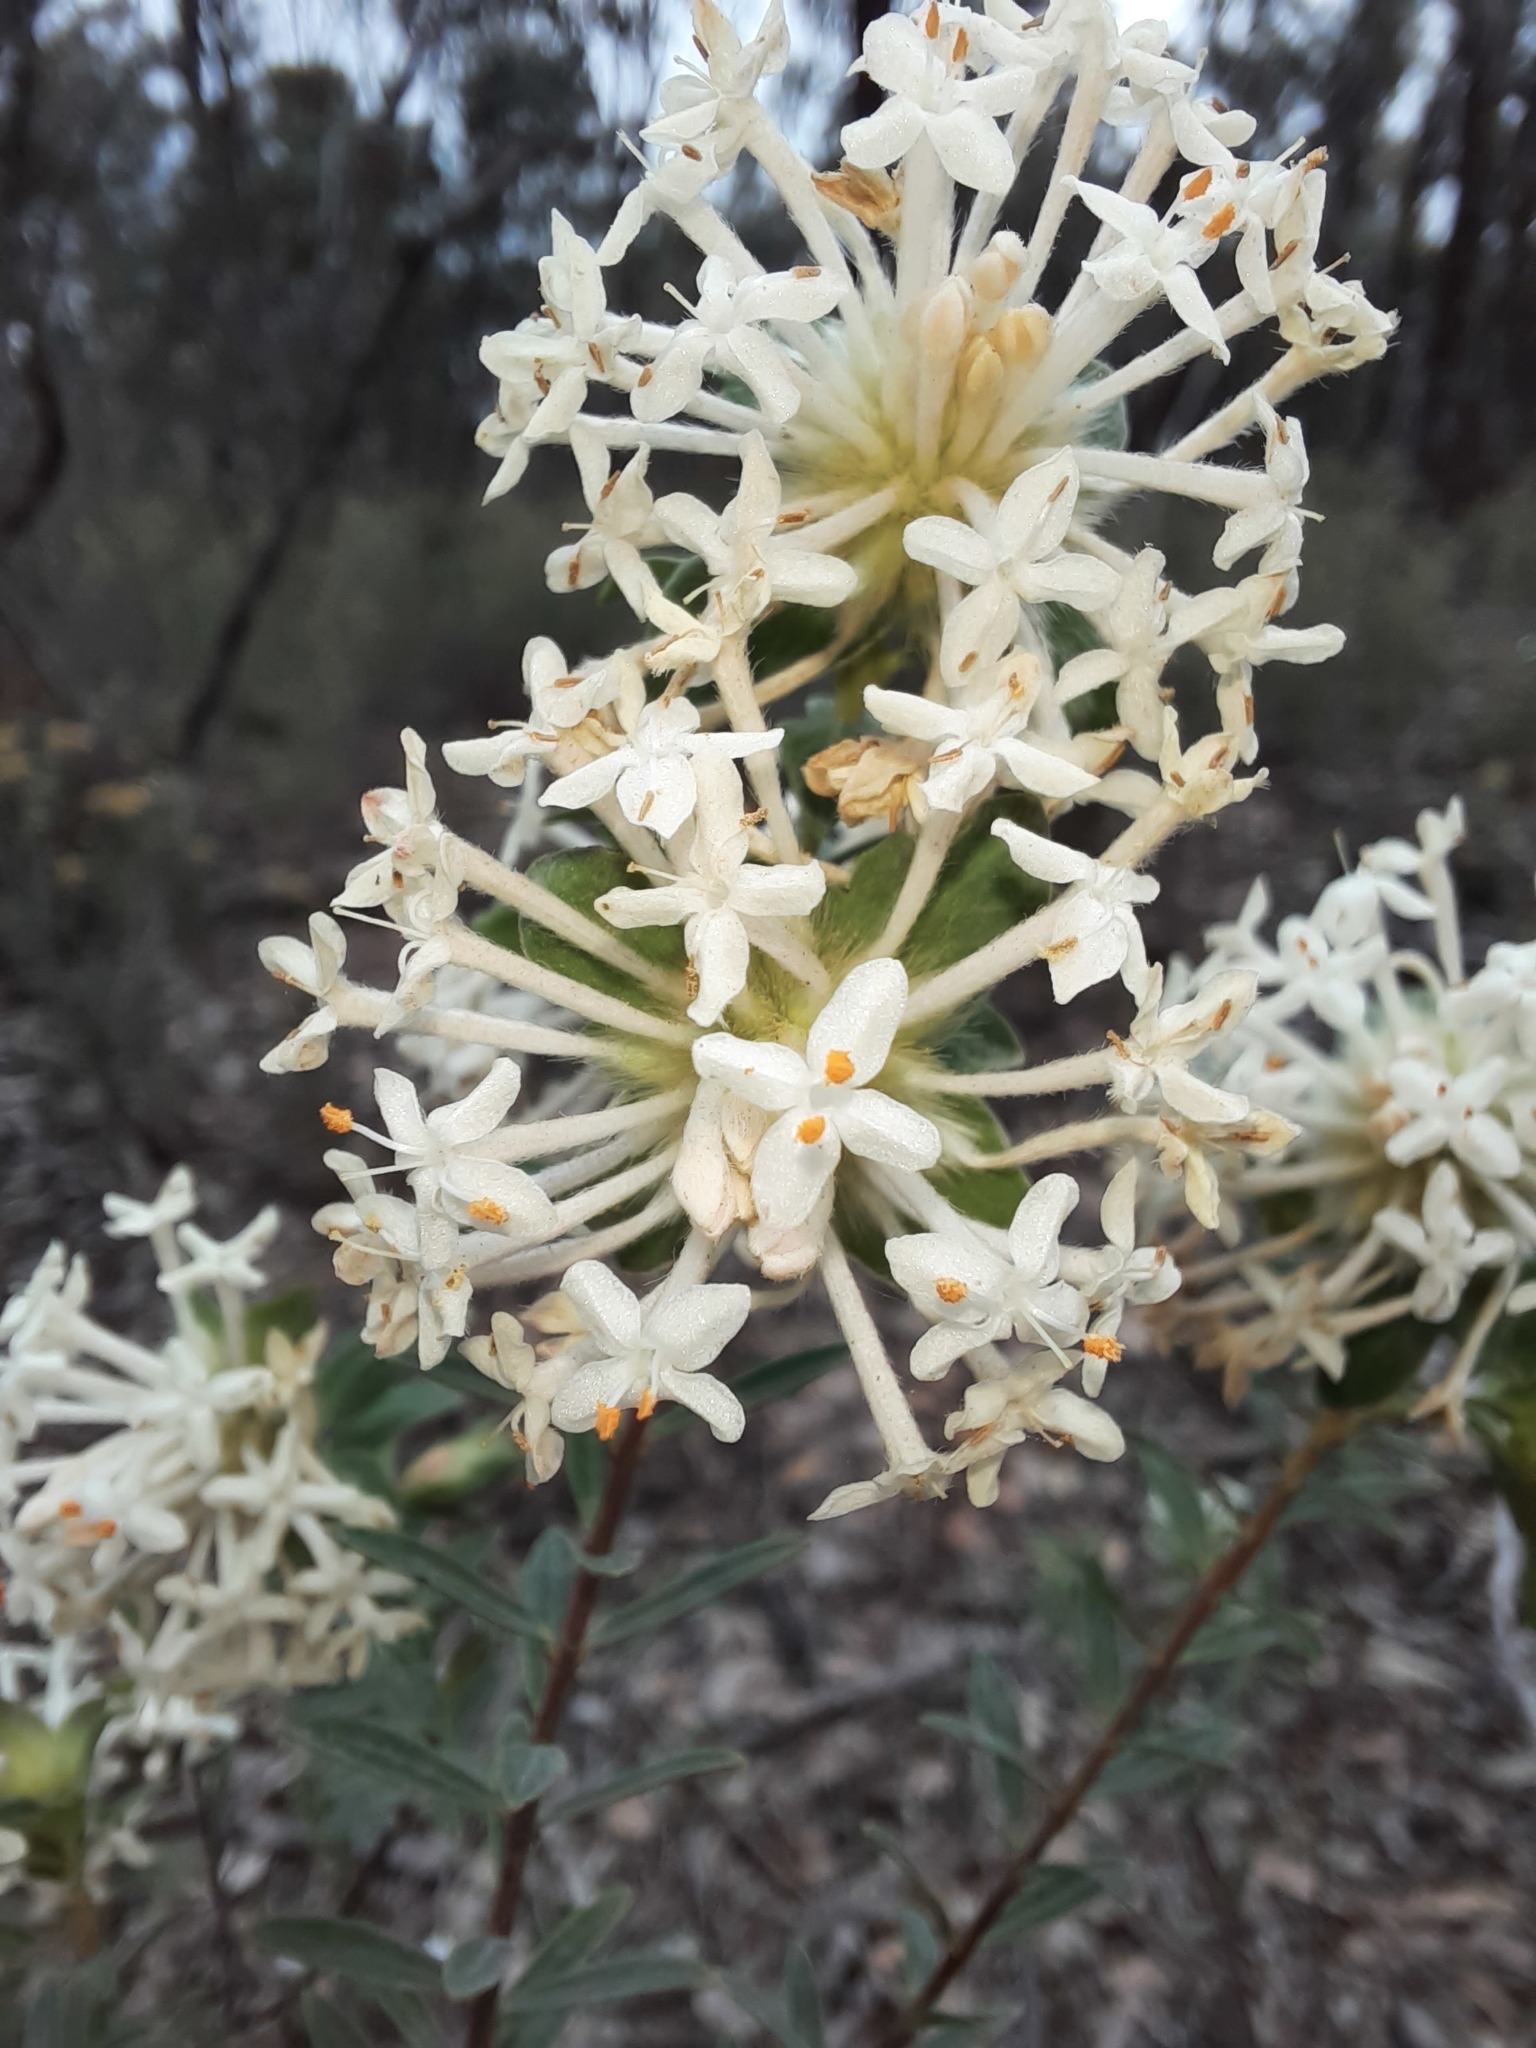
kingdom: Plantae
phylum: Tracheophyta
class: Magnoliopsida
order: Malvales
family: Thymelaeaceae
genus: Pimelea
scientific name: Pimelea linifolia
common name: Queen-of-the-bush
